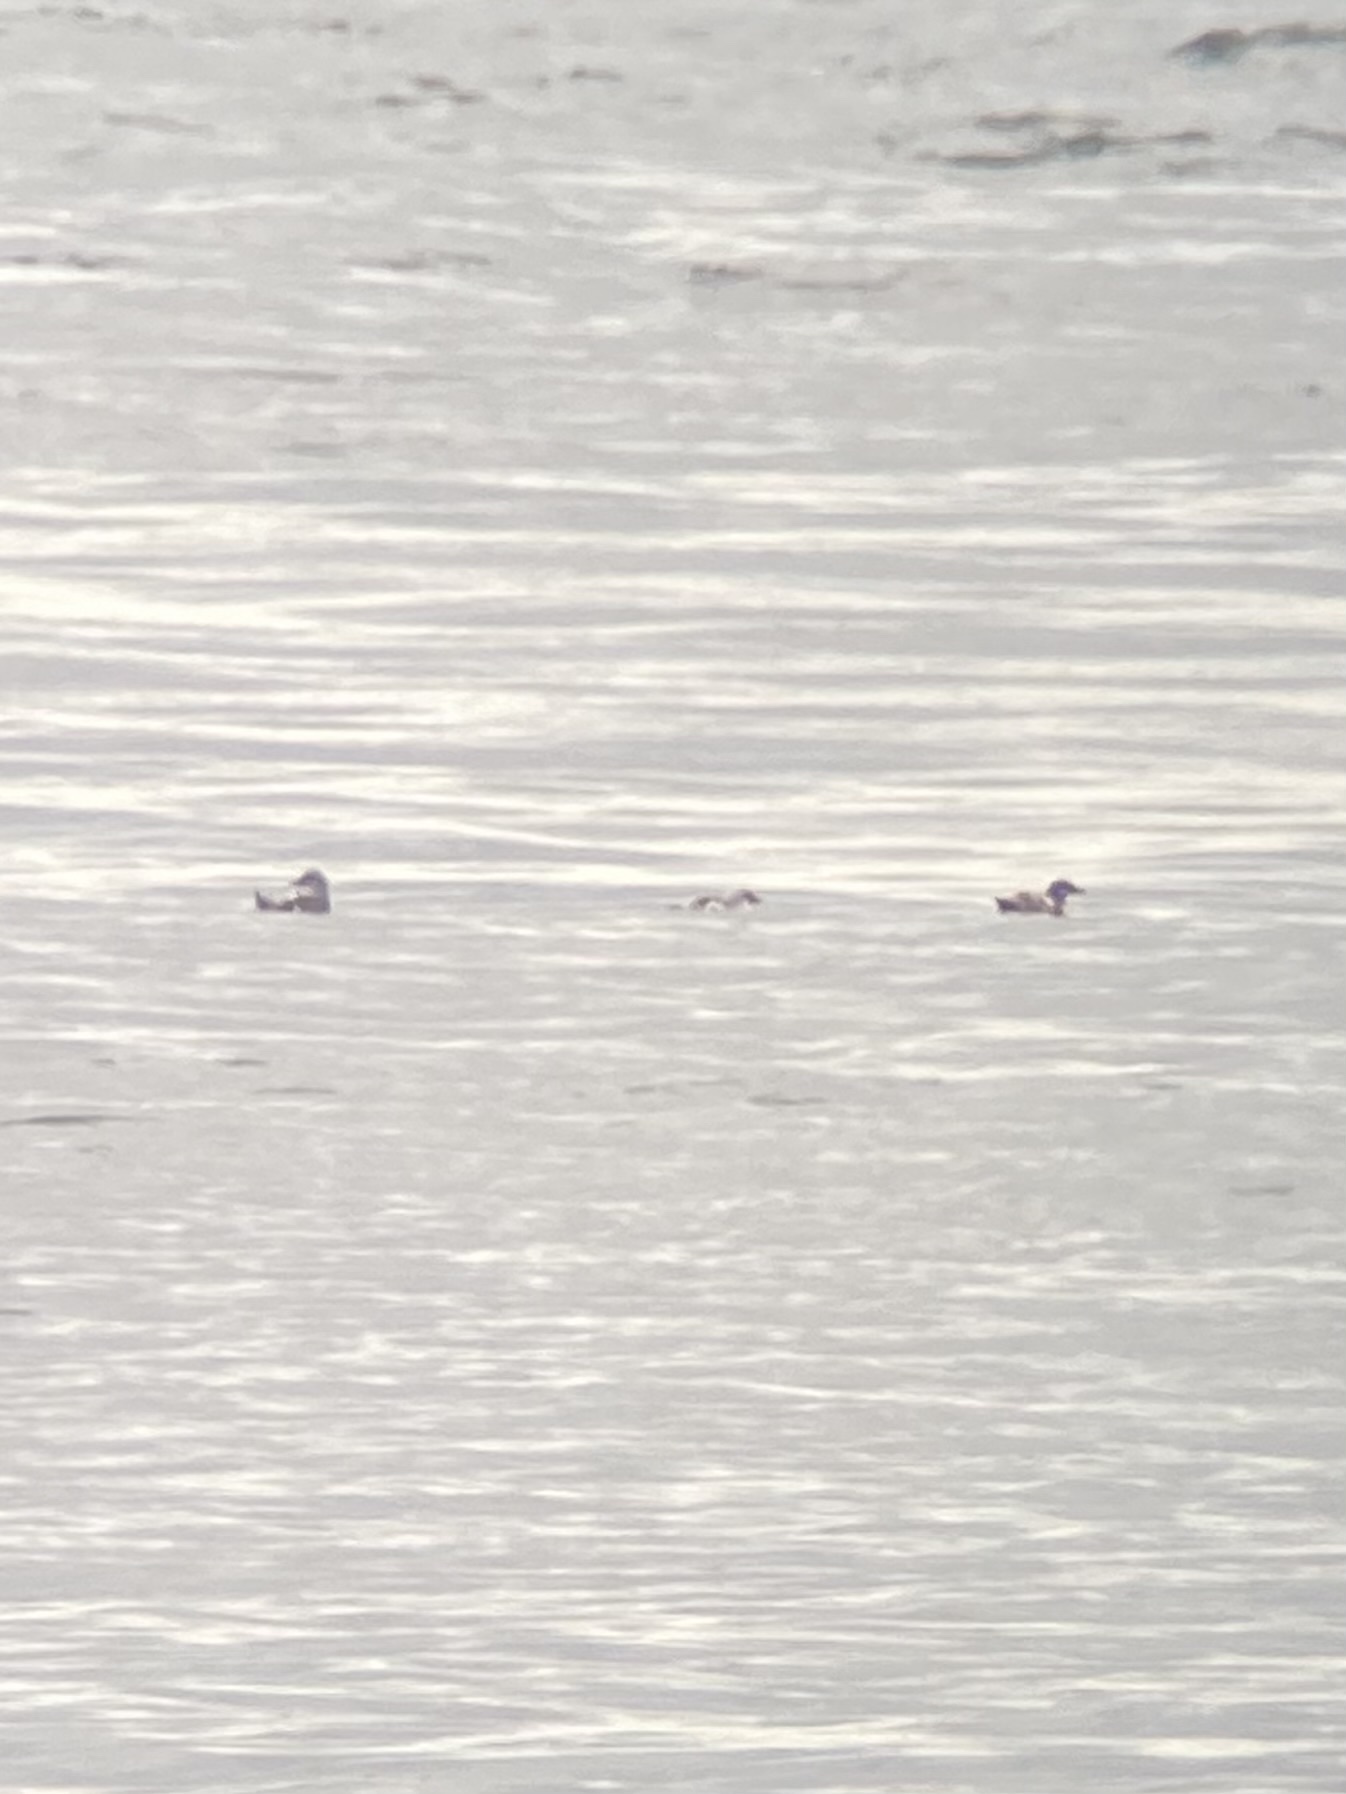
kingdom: Animalia
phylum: Chordata
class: Aves
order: Charadriiformes
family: Alcidae
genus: Cepphus
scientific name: Cepphus columba
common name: Pigeon guillemot
